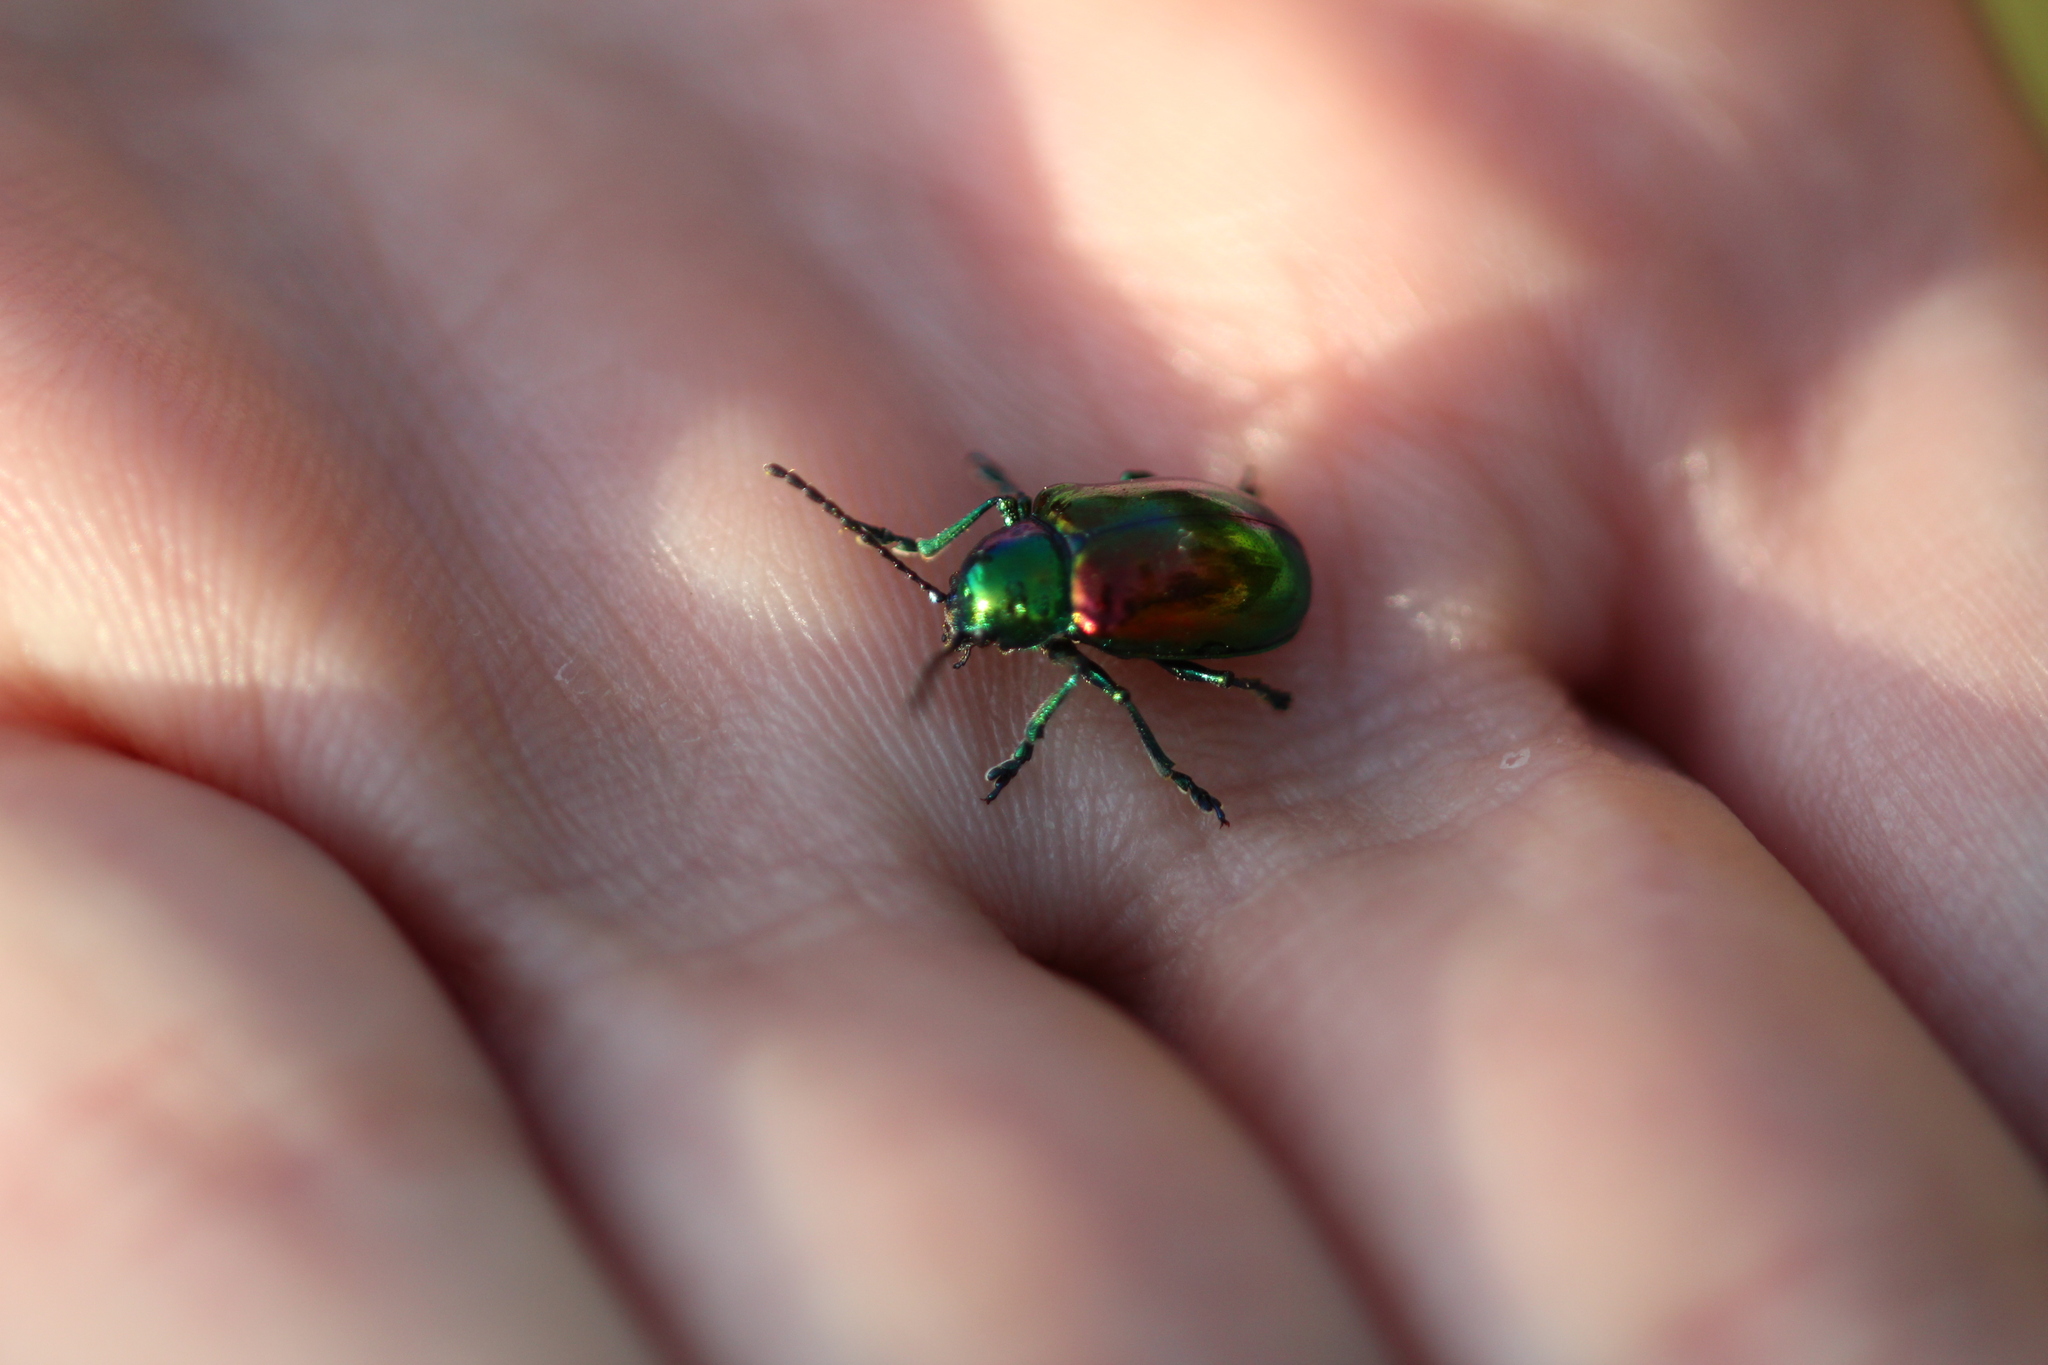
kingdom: Animalia
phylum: Arthropoda
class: Insecta
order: Coleoptera
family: Chrysomelidae
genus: Chrysochus
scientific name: Chrysochus auratus
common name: Dogbane leaf beetle
